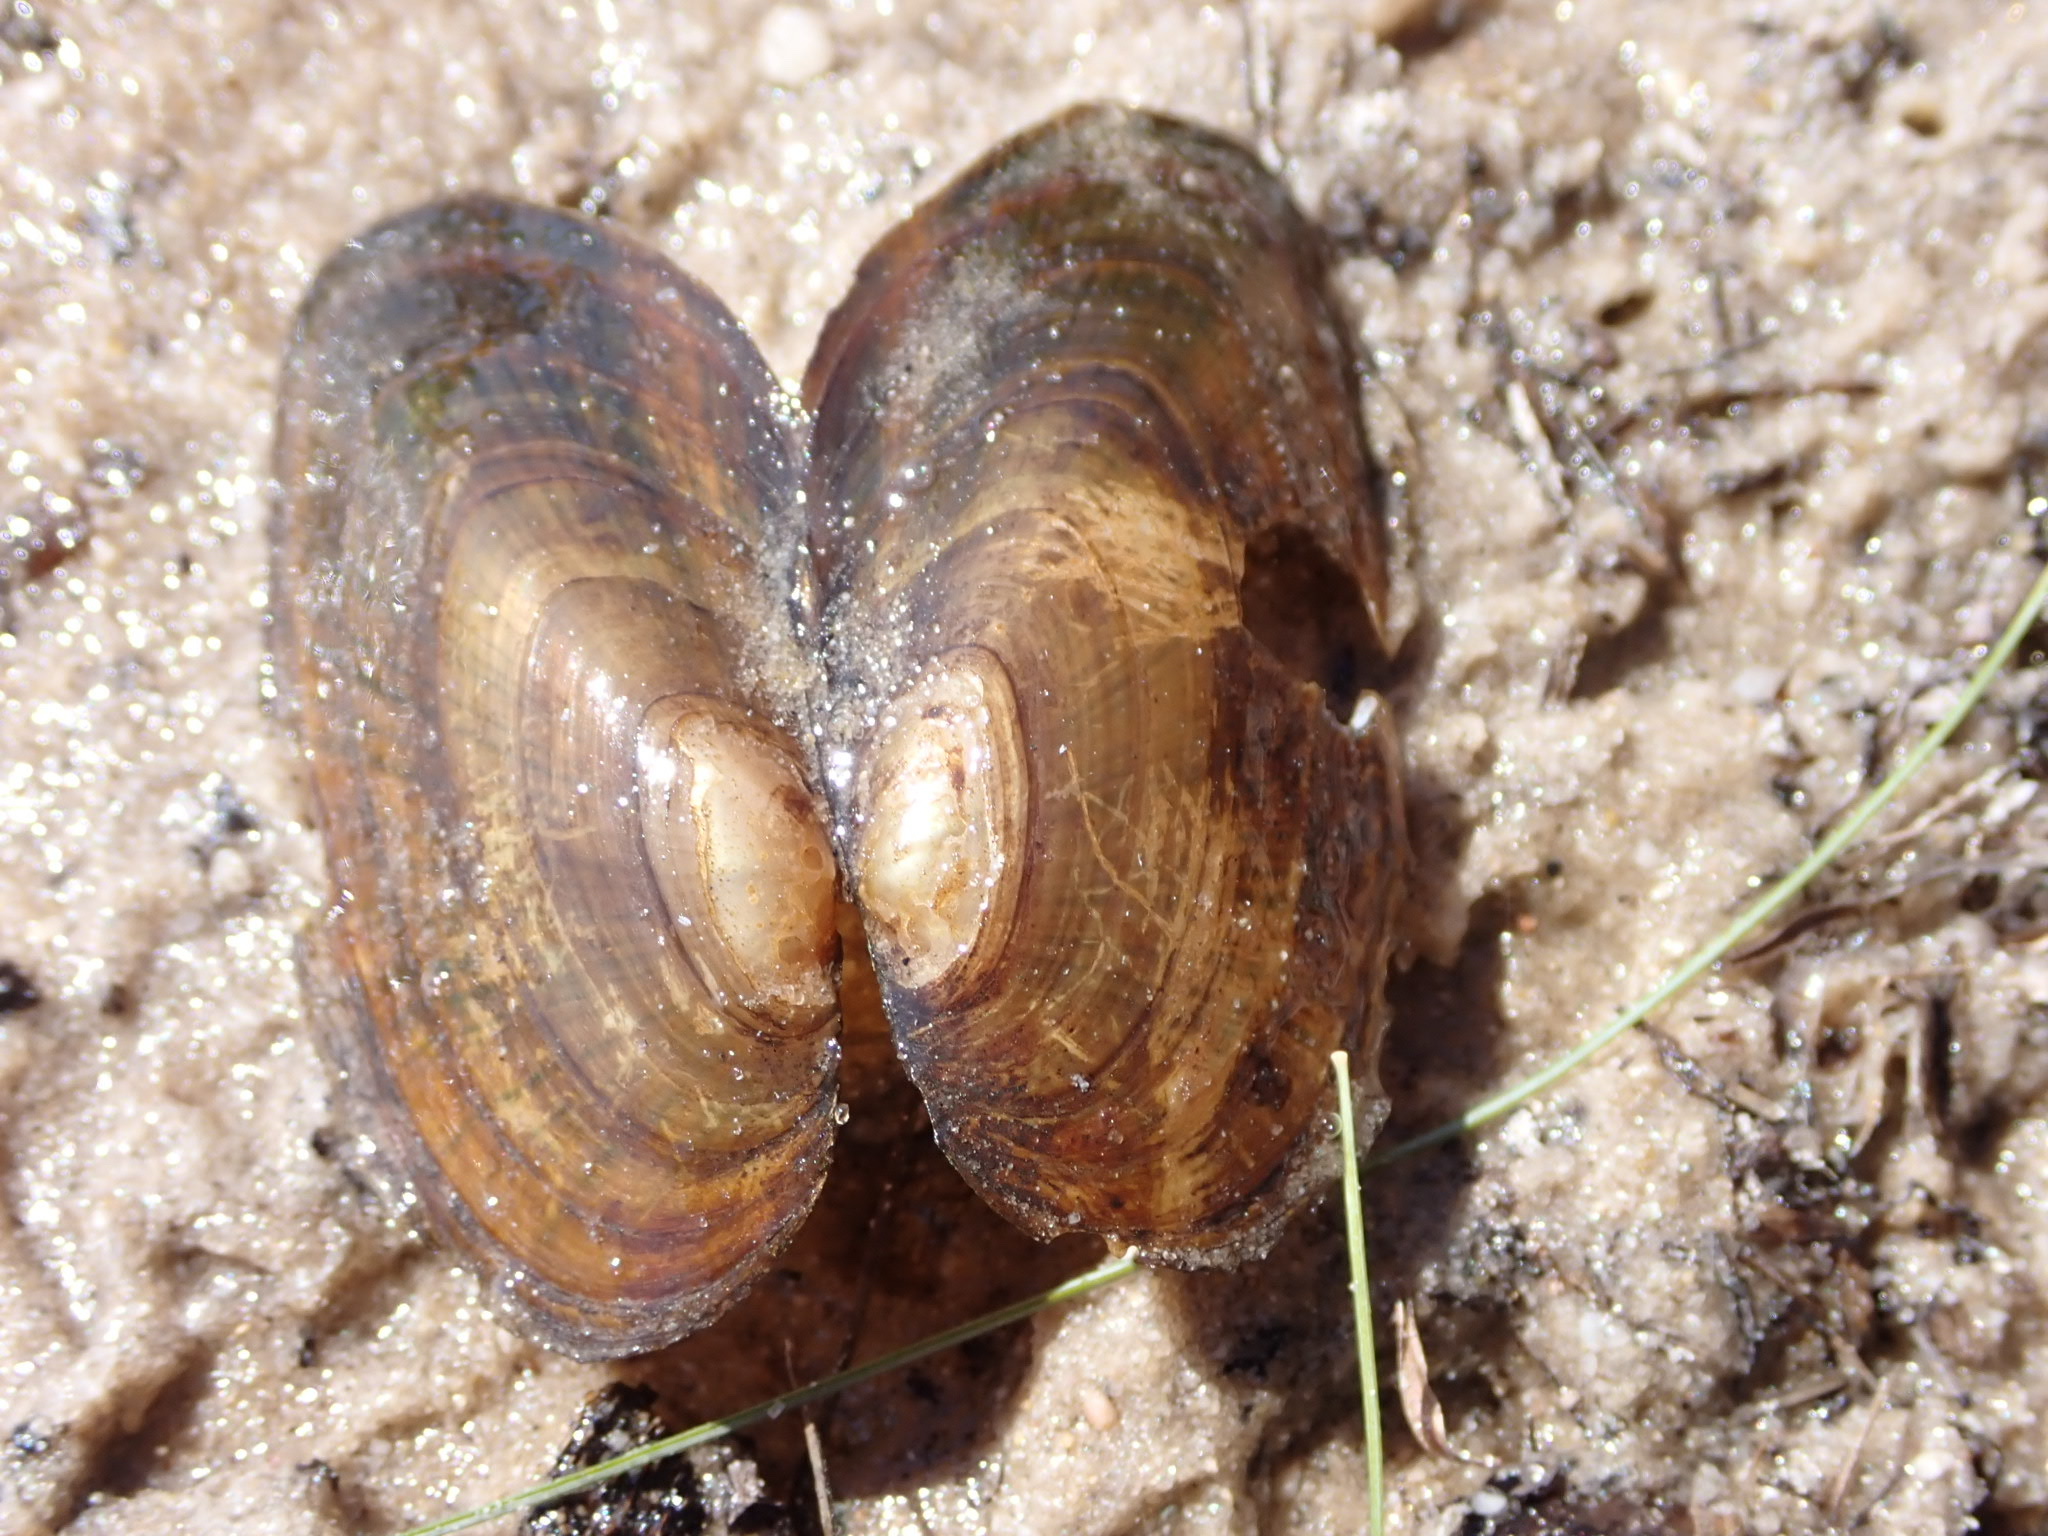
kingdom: Animalia
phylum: Mollusca
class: Bivalvia
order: Unionida
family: Unionidae
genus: Elliptio
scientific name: Elliptio complanata
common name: Eastern elliptio
